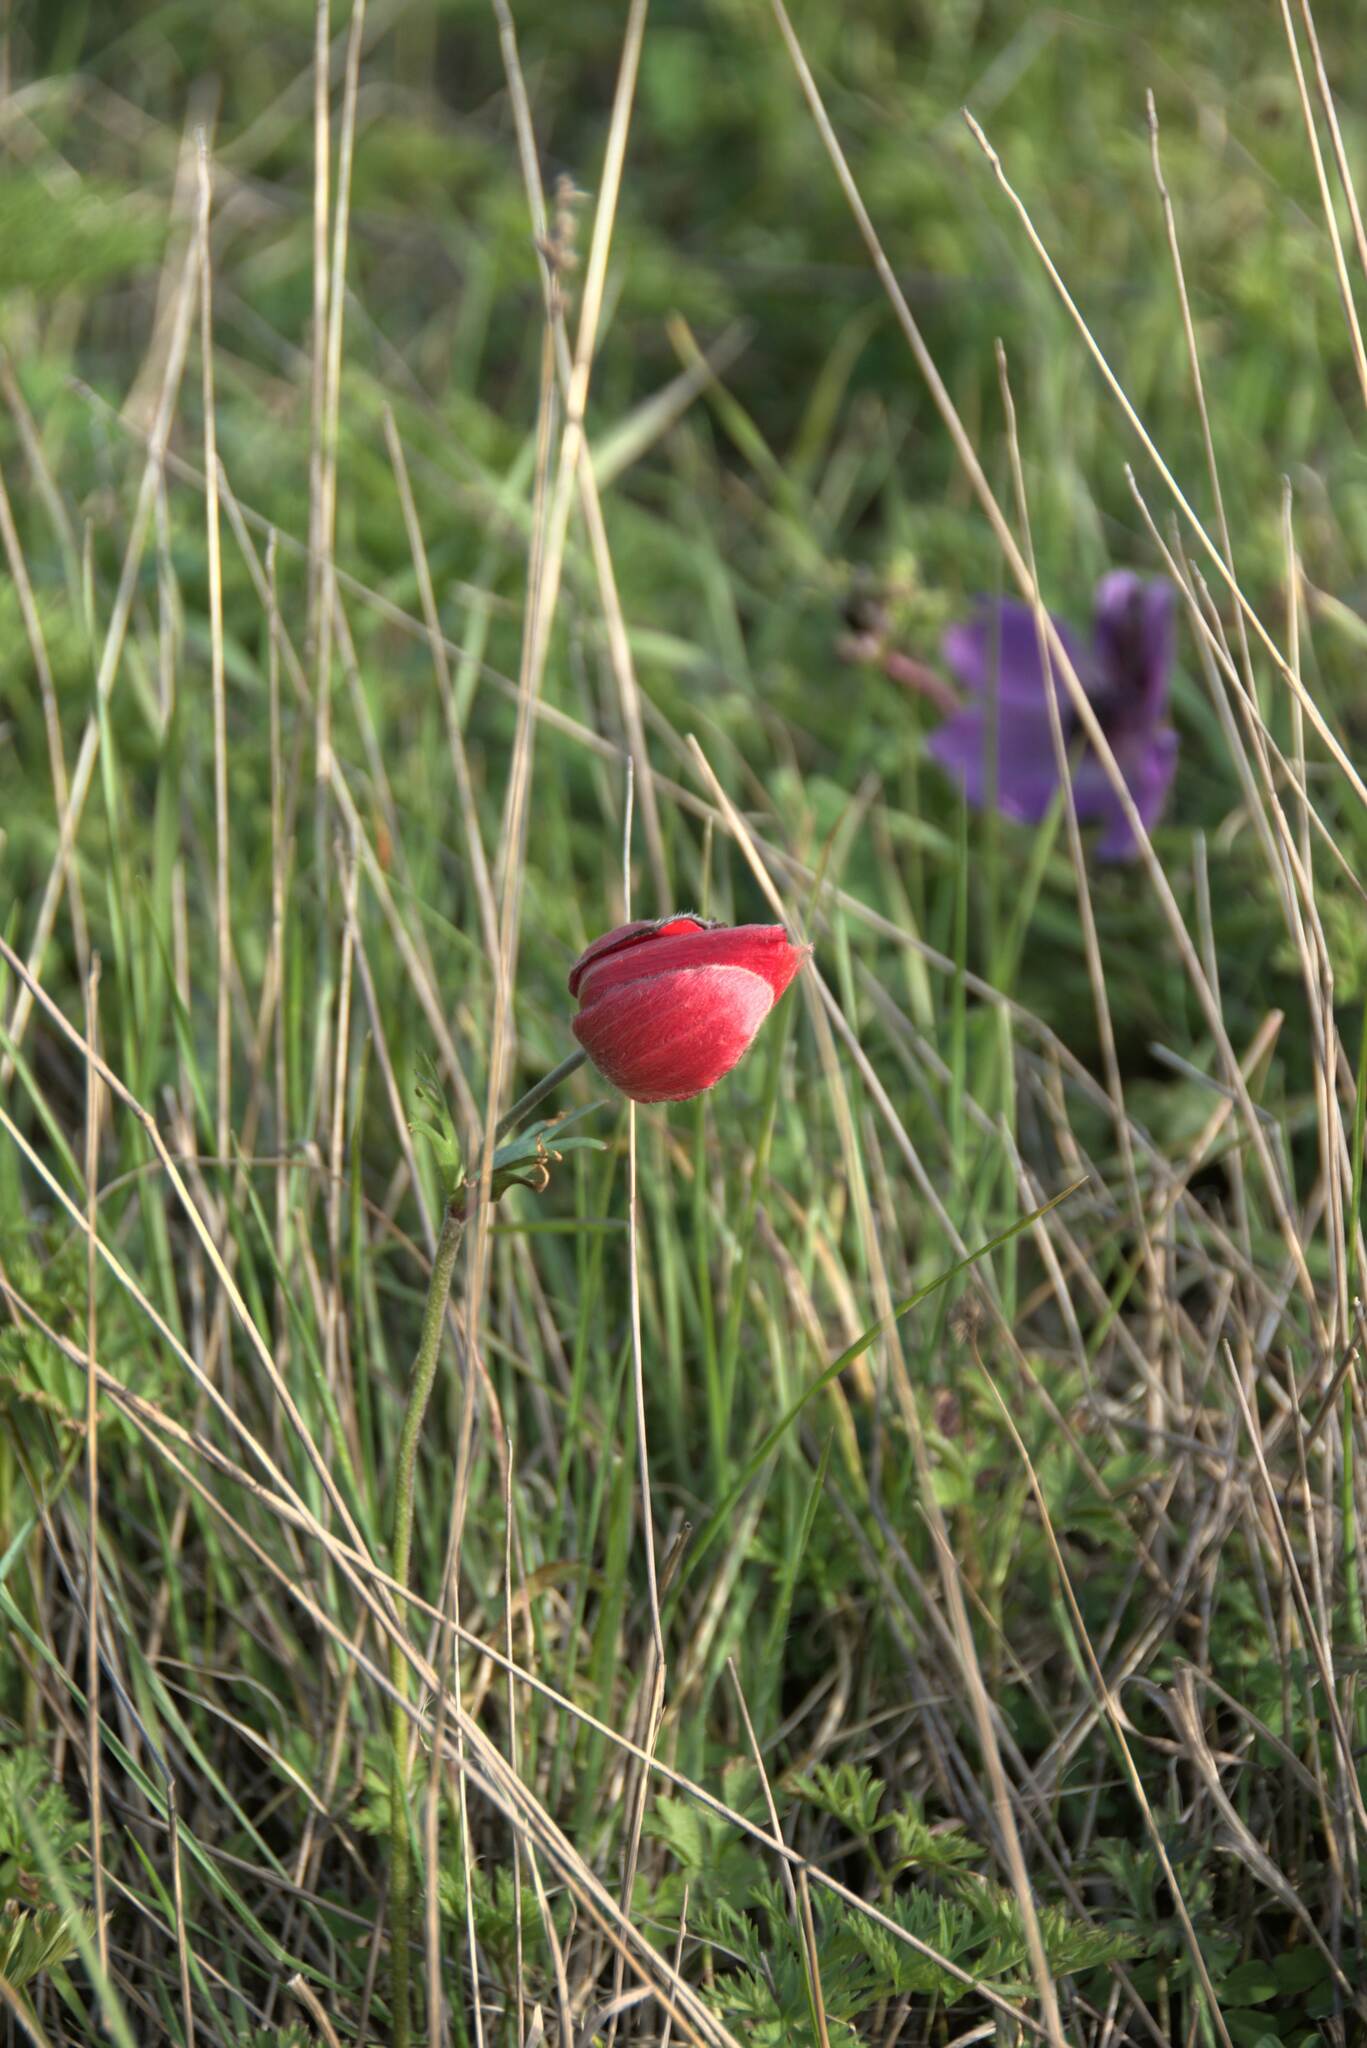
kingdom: Plantae
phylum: Tracheophyta
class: Magnoliopsida
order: Ranunculales
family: Ranunculaceae
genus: Anemone
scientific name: Anemone coronaria
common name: Poppy anemone
